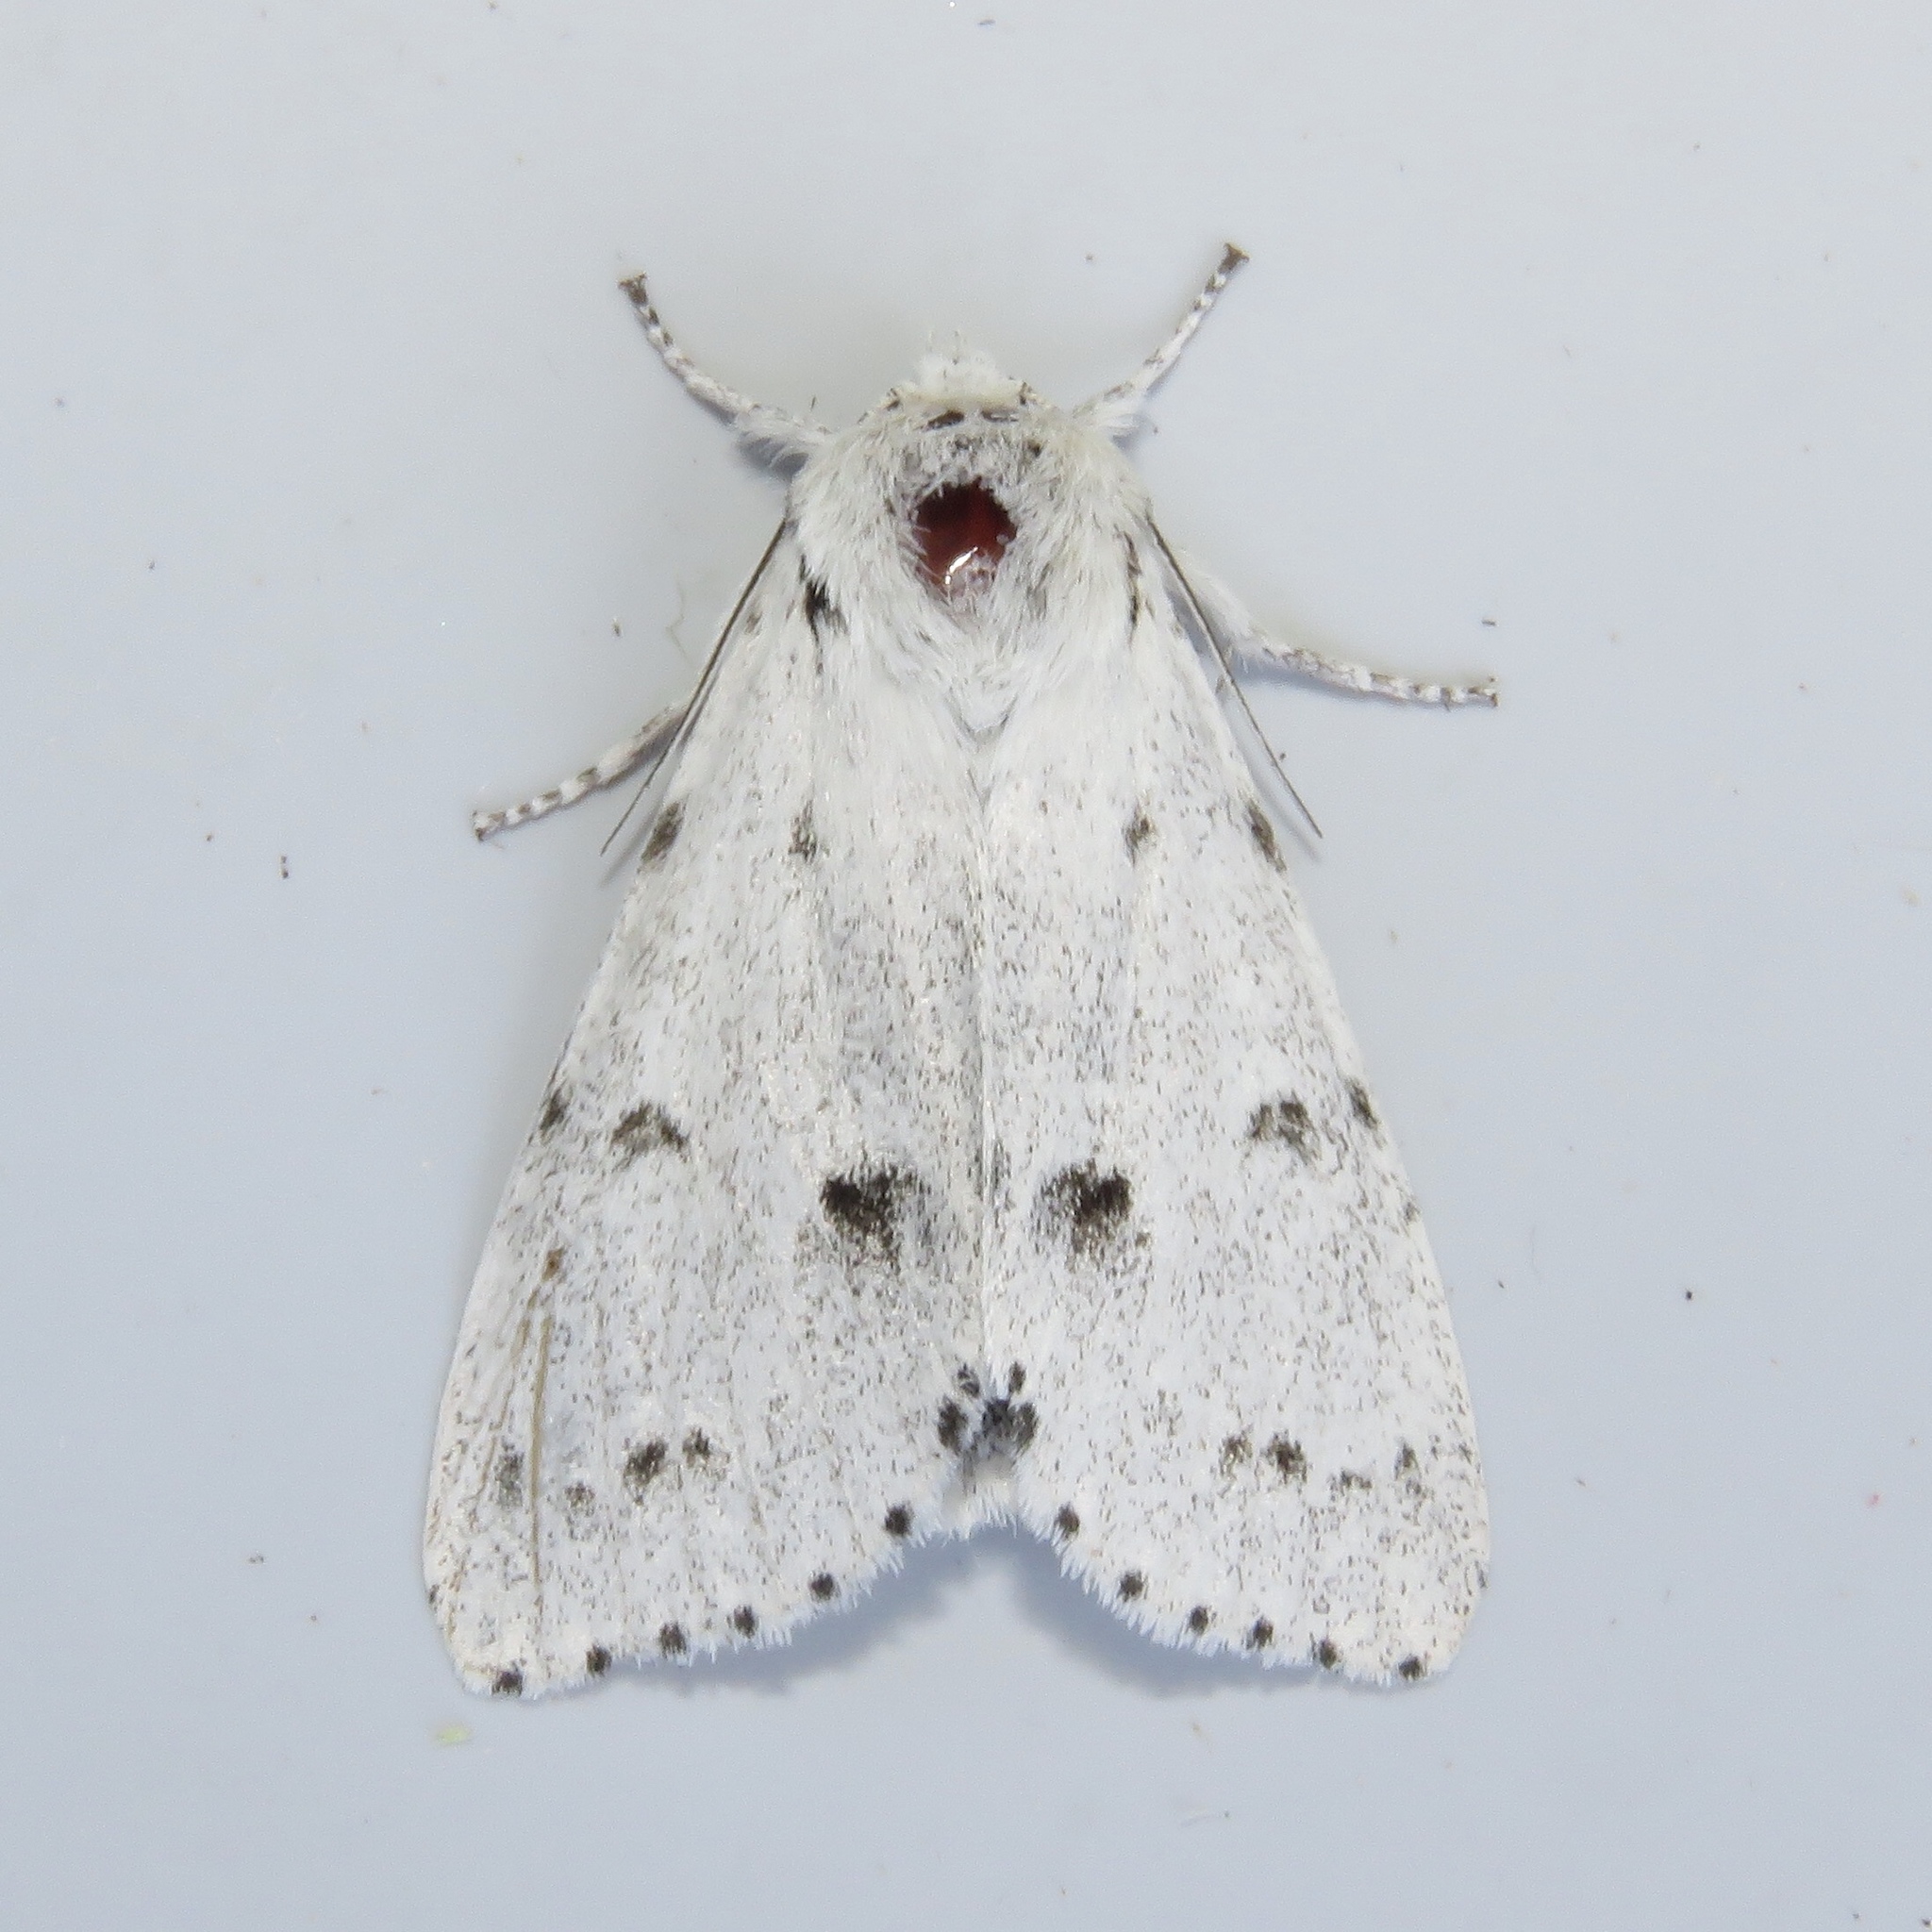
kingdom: Animalia
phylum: Arthropoda
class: Insecta
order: Lepidoptera
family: Noctuidae
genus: Acronicta
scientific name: Acronicta vulpina
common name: Miller dagger
